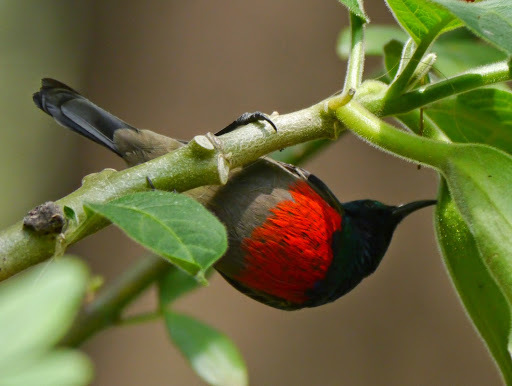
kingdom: Animalia
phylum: Chordata
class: Aves
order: Passeriformes
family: Nectariniidae
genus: Cinnyris
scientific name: Cinnyris reichenowi
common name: Northern double-collared sunbird
